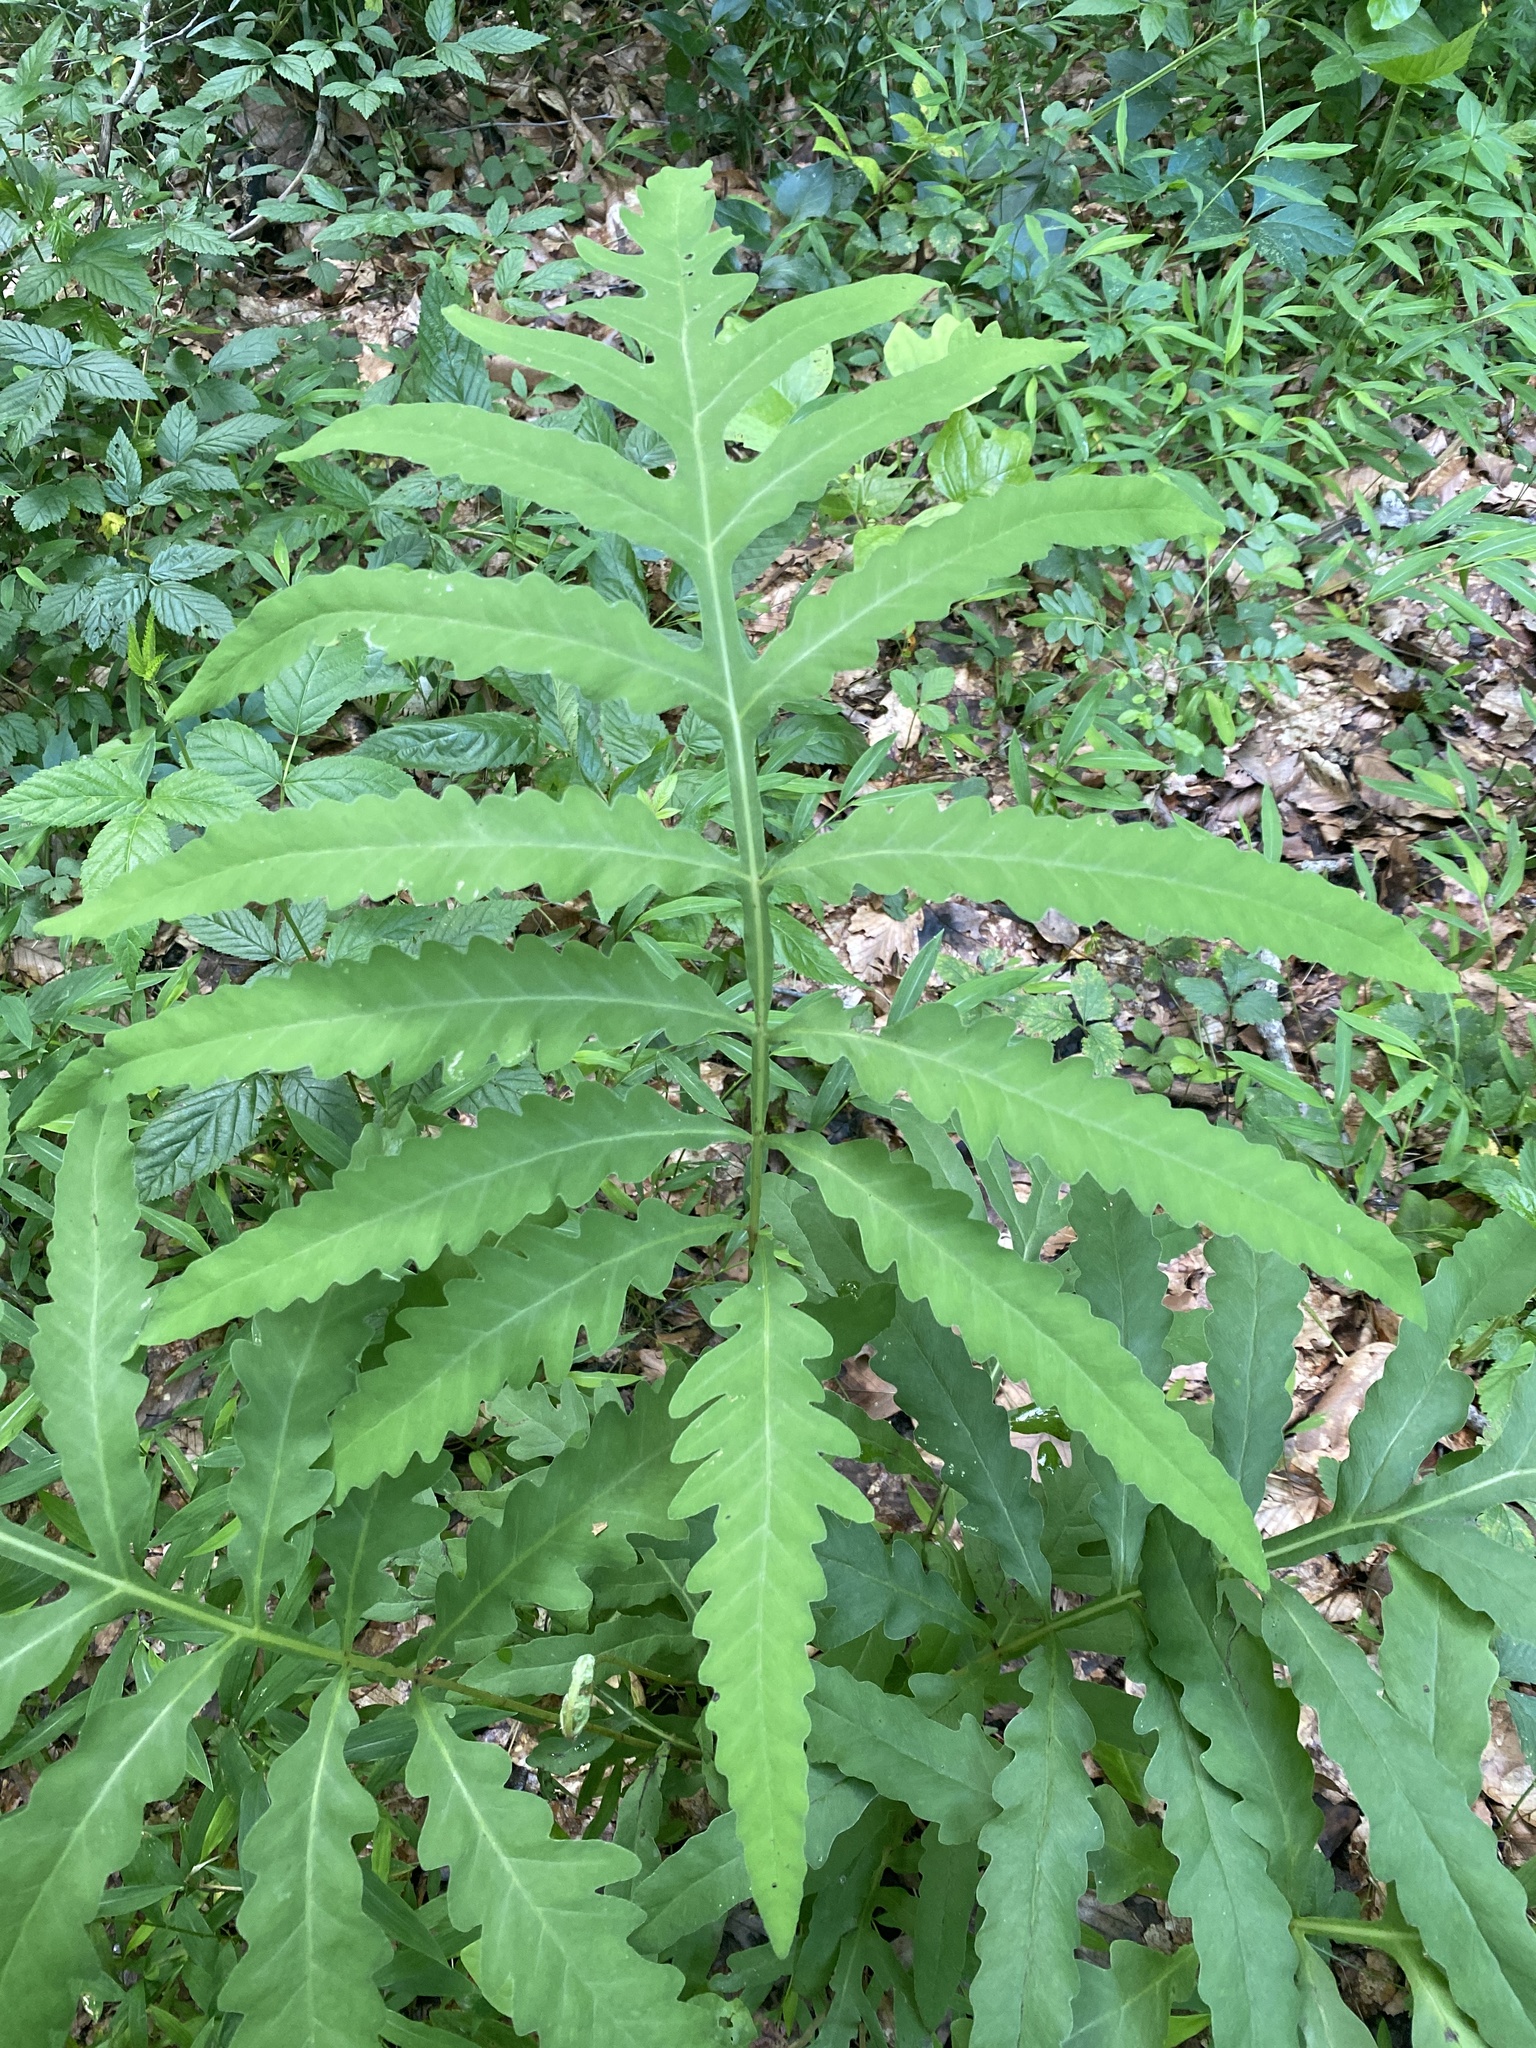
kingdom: Plantae
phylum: Tracheophyta
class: Polypodiopsida
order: Polypodiales
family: Onocleaceae
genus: Onoclea
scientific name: Onoclea sensibilis
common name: Sensitive fern
